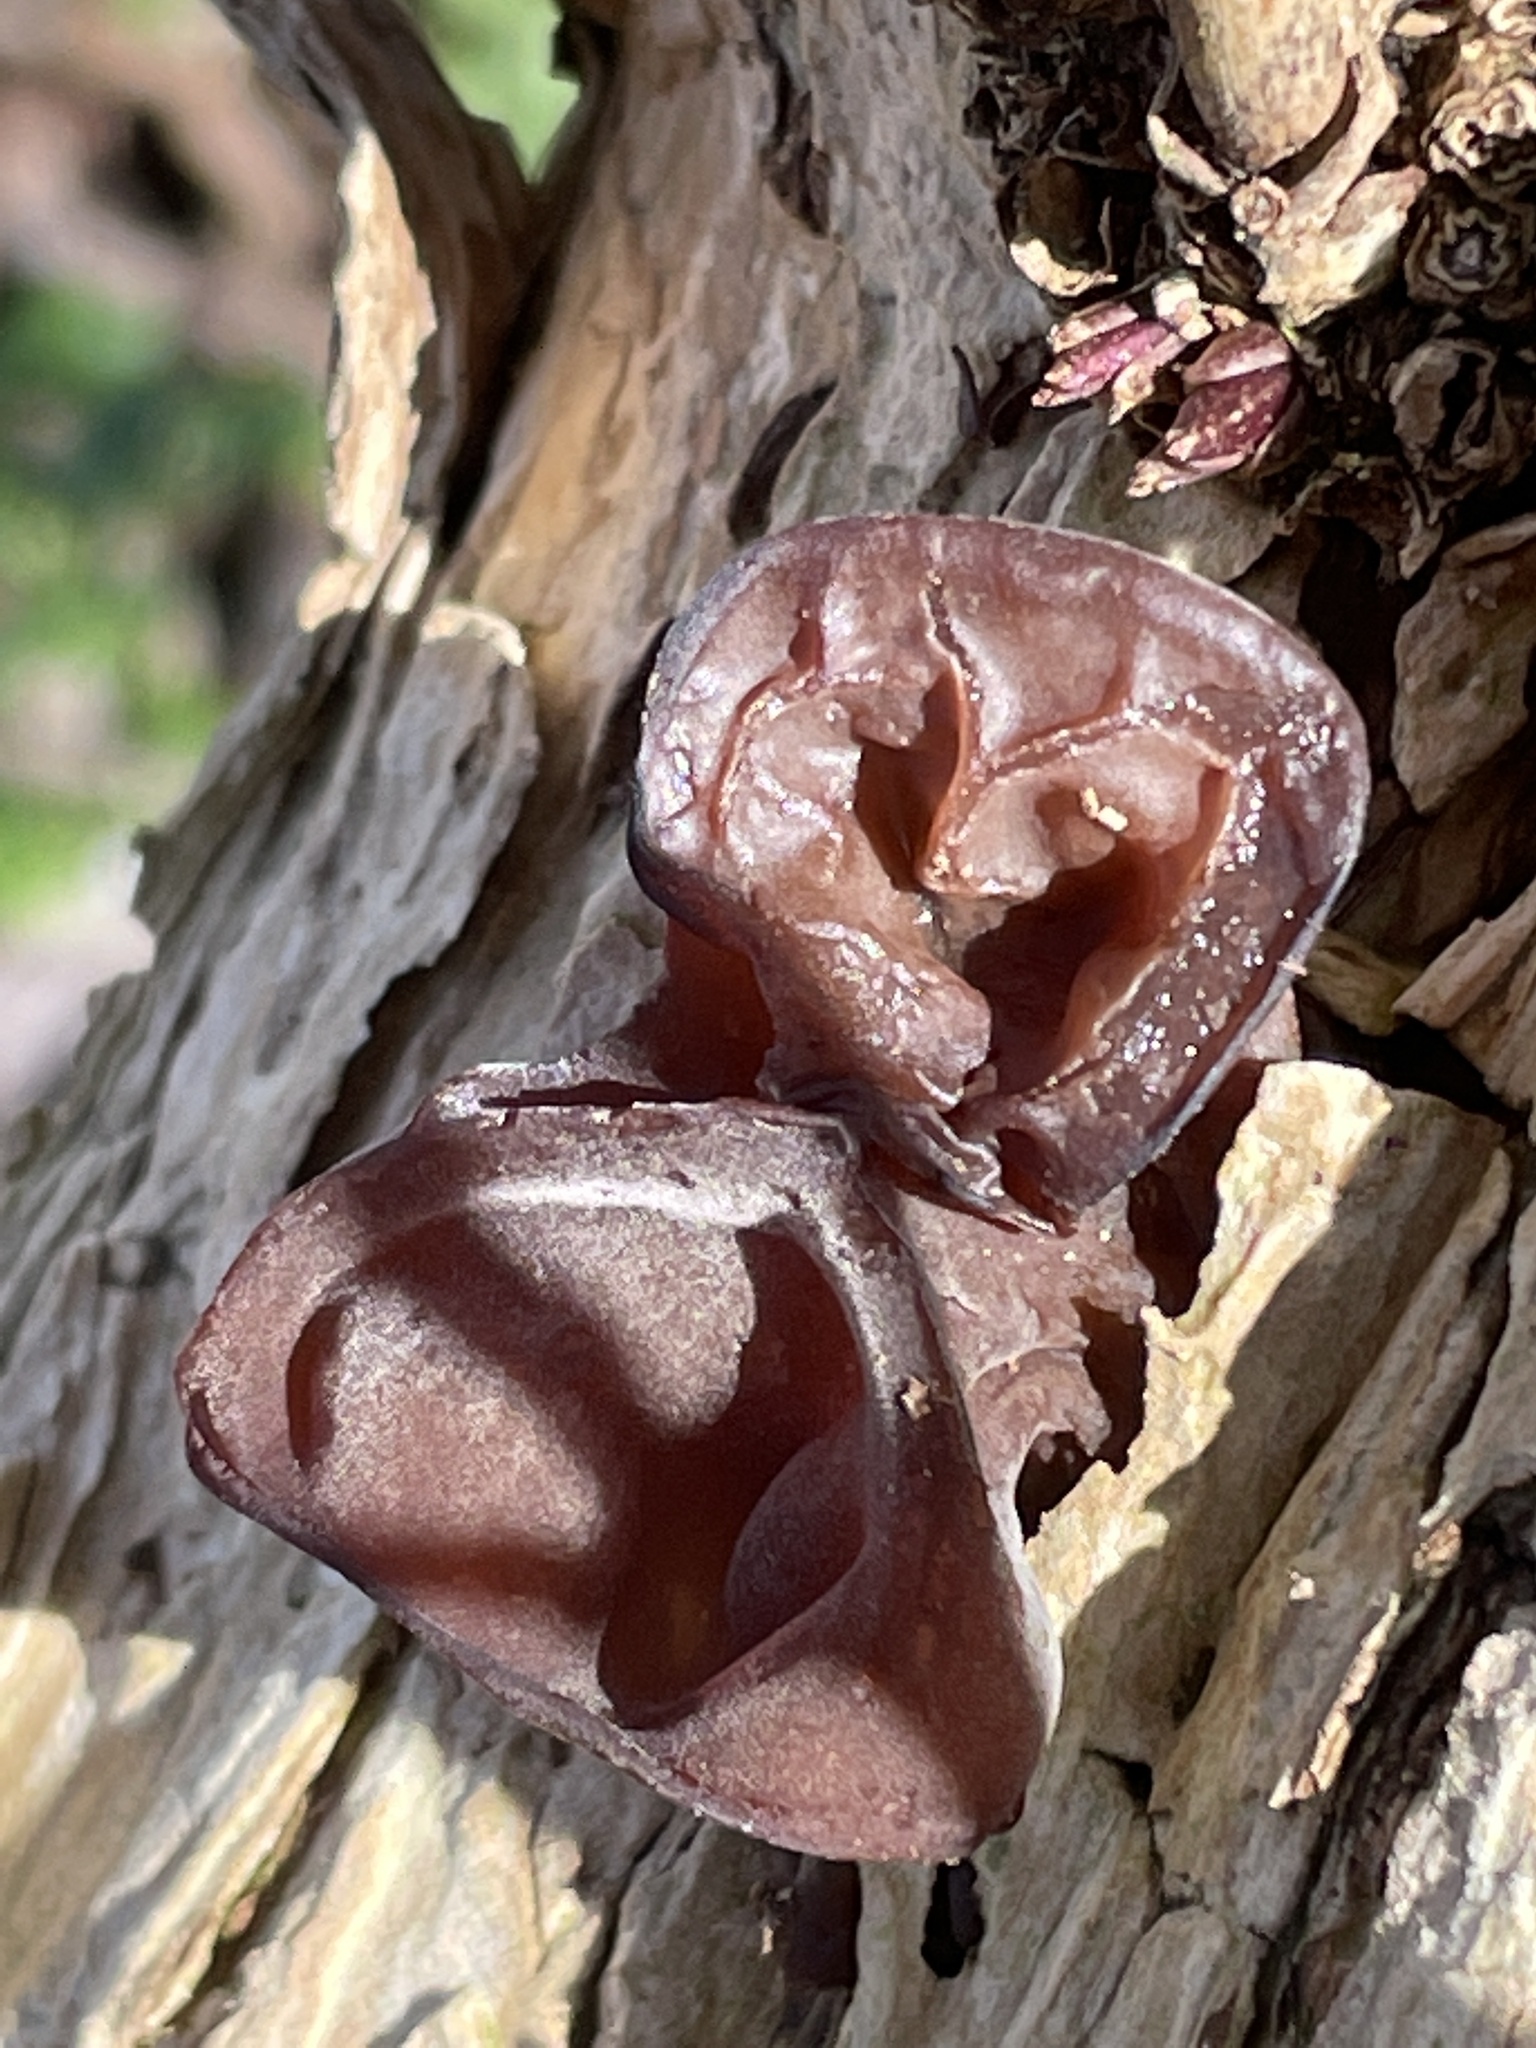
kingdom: Fungi
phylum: Basidiomycota
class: Agaricomycetes
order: Auriculariales
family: Auriculariaceae
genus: Auricularia
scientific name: Auricularia auricula-judae
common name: Jelly ear
